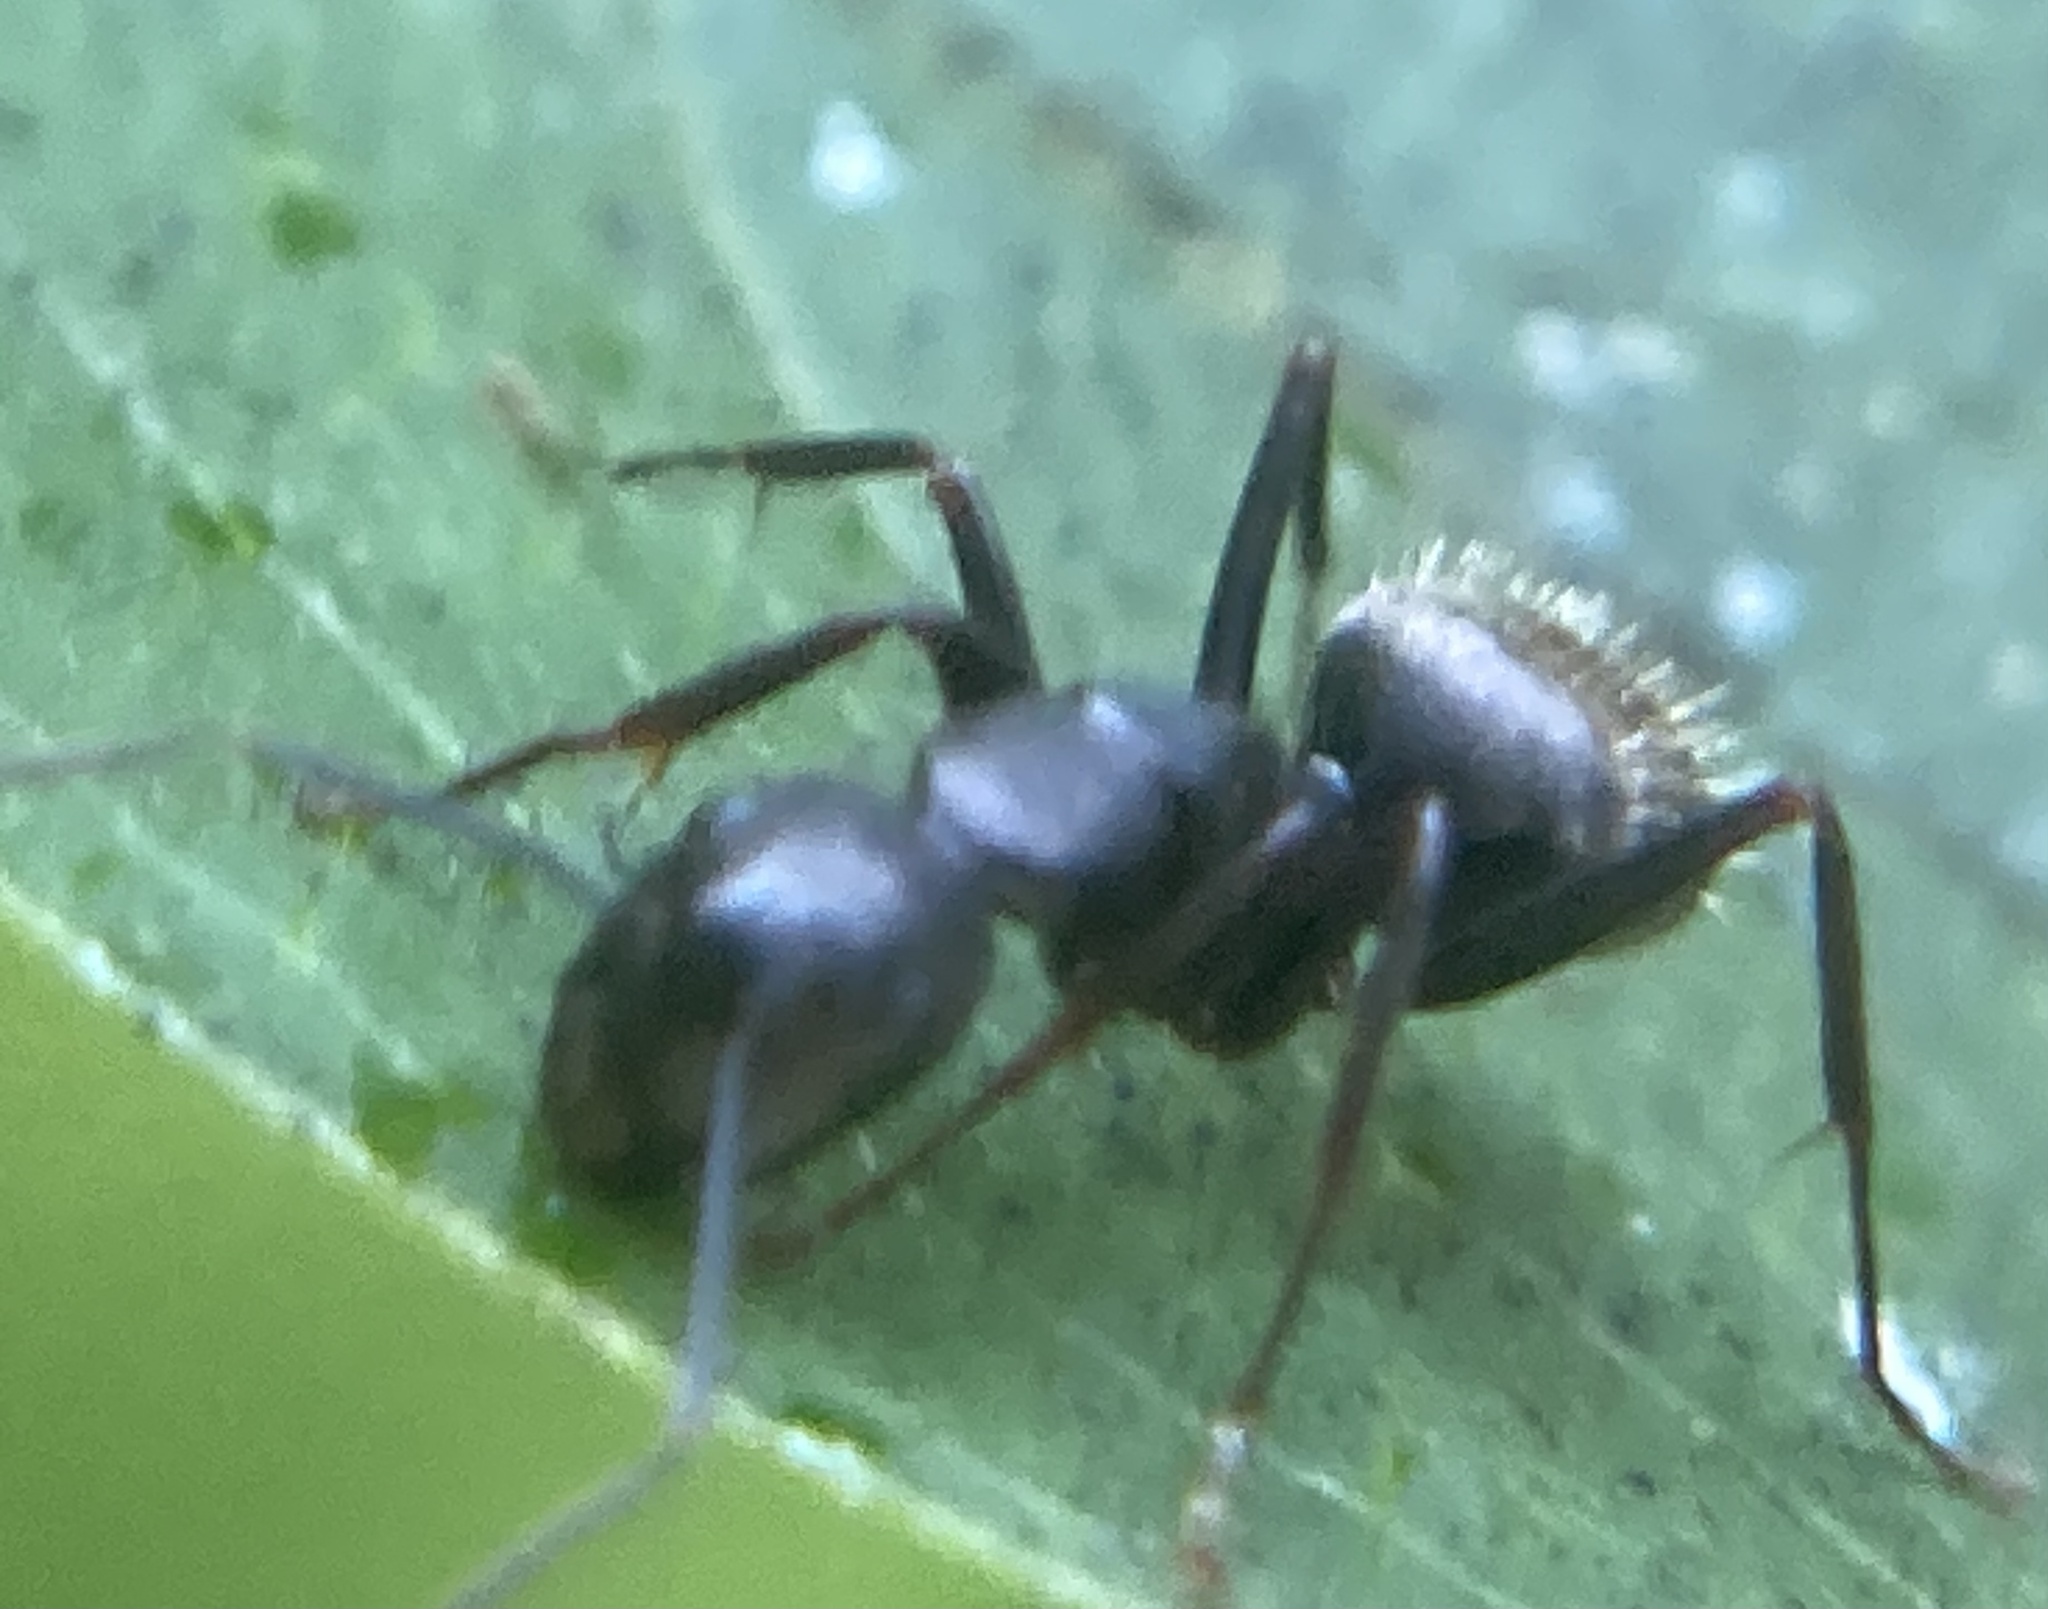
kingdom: Animalia
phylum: Arthropoda
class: Insecta
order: Hymenoptera
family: Formicidae
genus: Camponotus
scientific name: Camponotus pennsylvanicus
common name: Black carpenter ant
